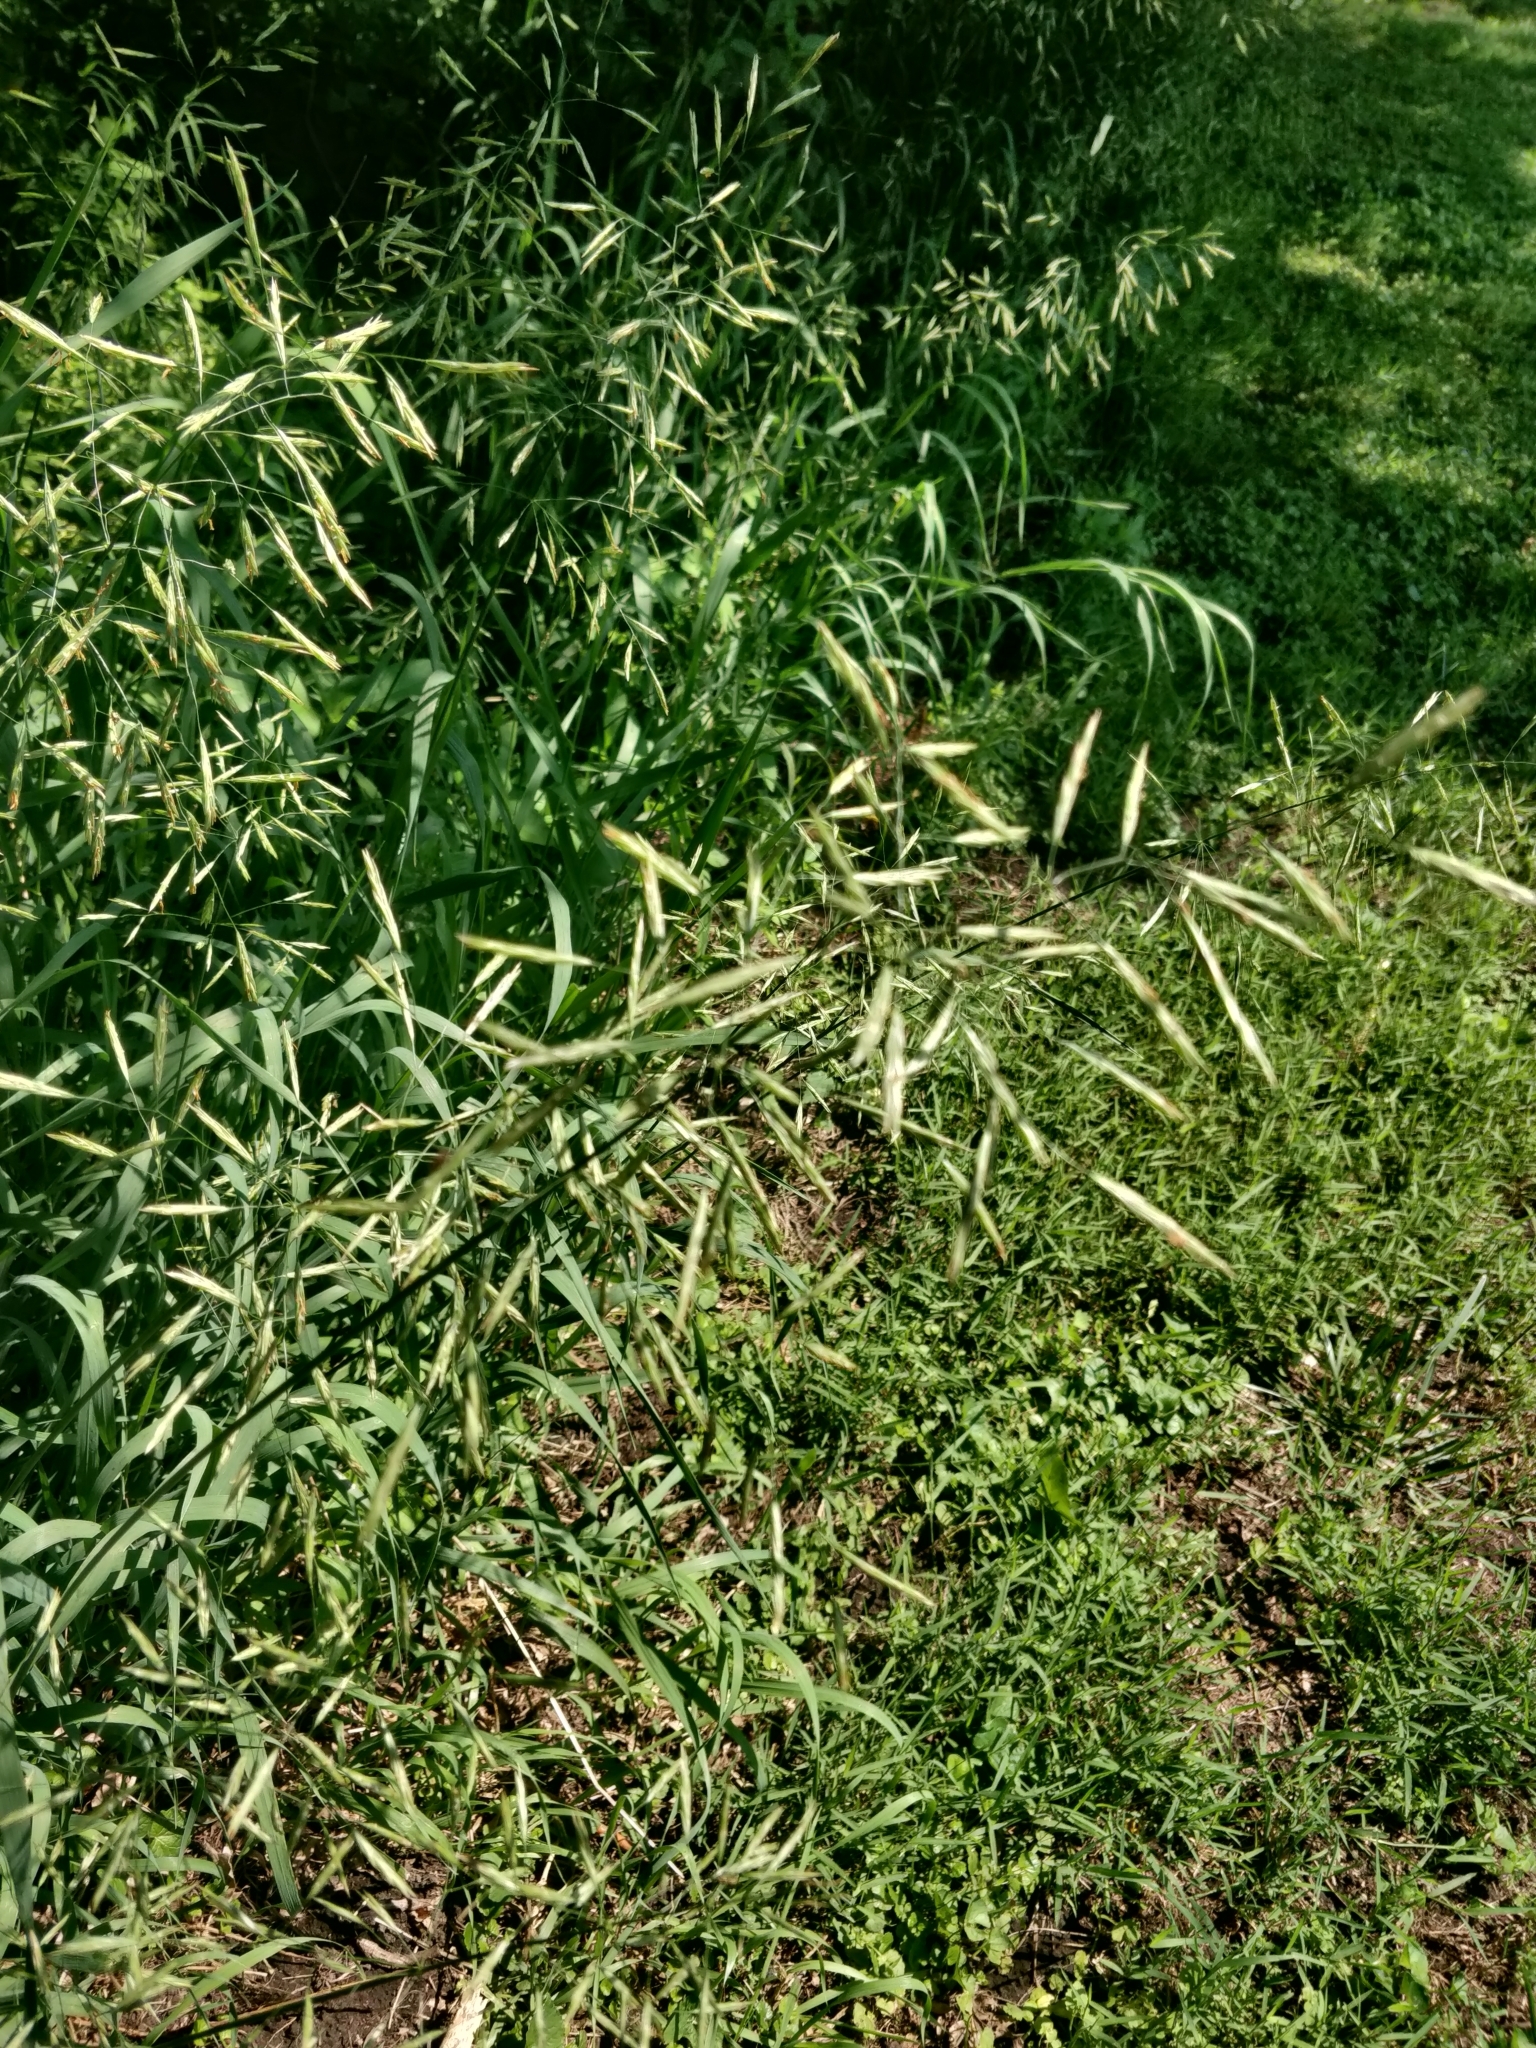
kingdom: Plantae
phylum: Tracheophyta
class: Liliopsida
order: Poales
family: Poaceae
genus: Bromus
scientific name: Bromus inermis
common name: Smooth brome
